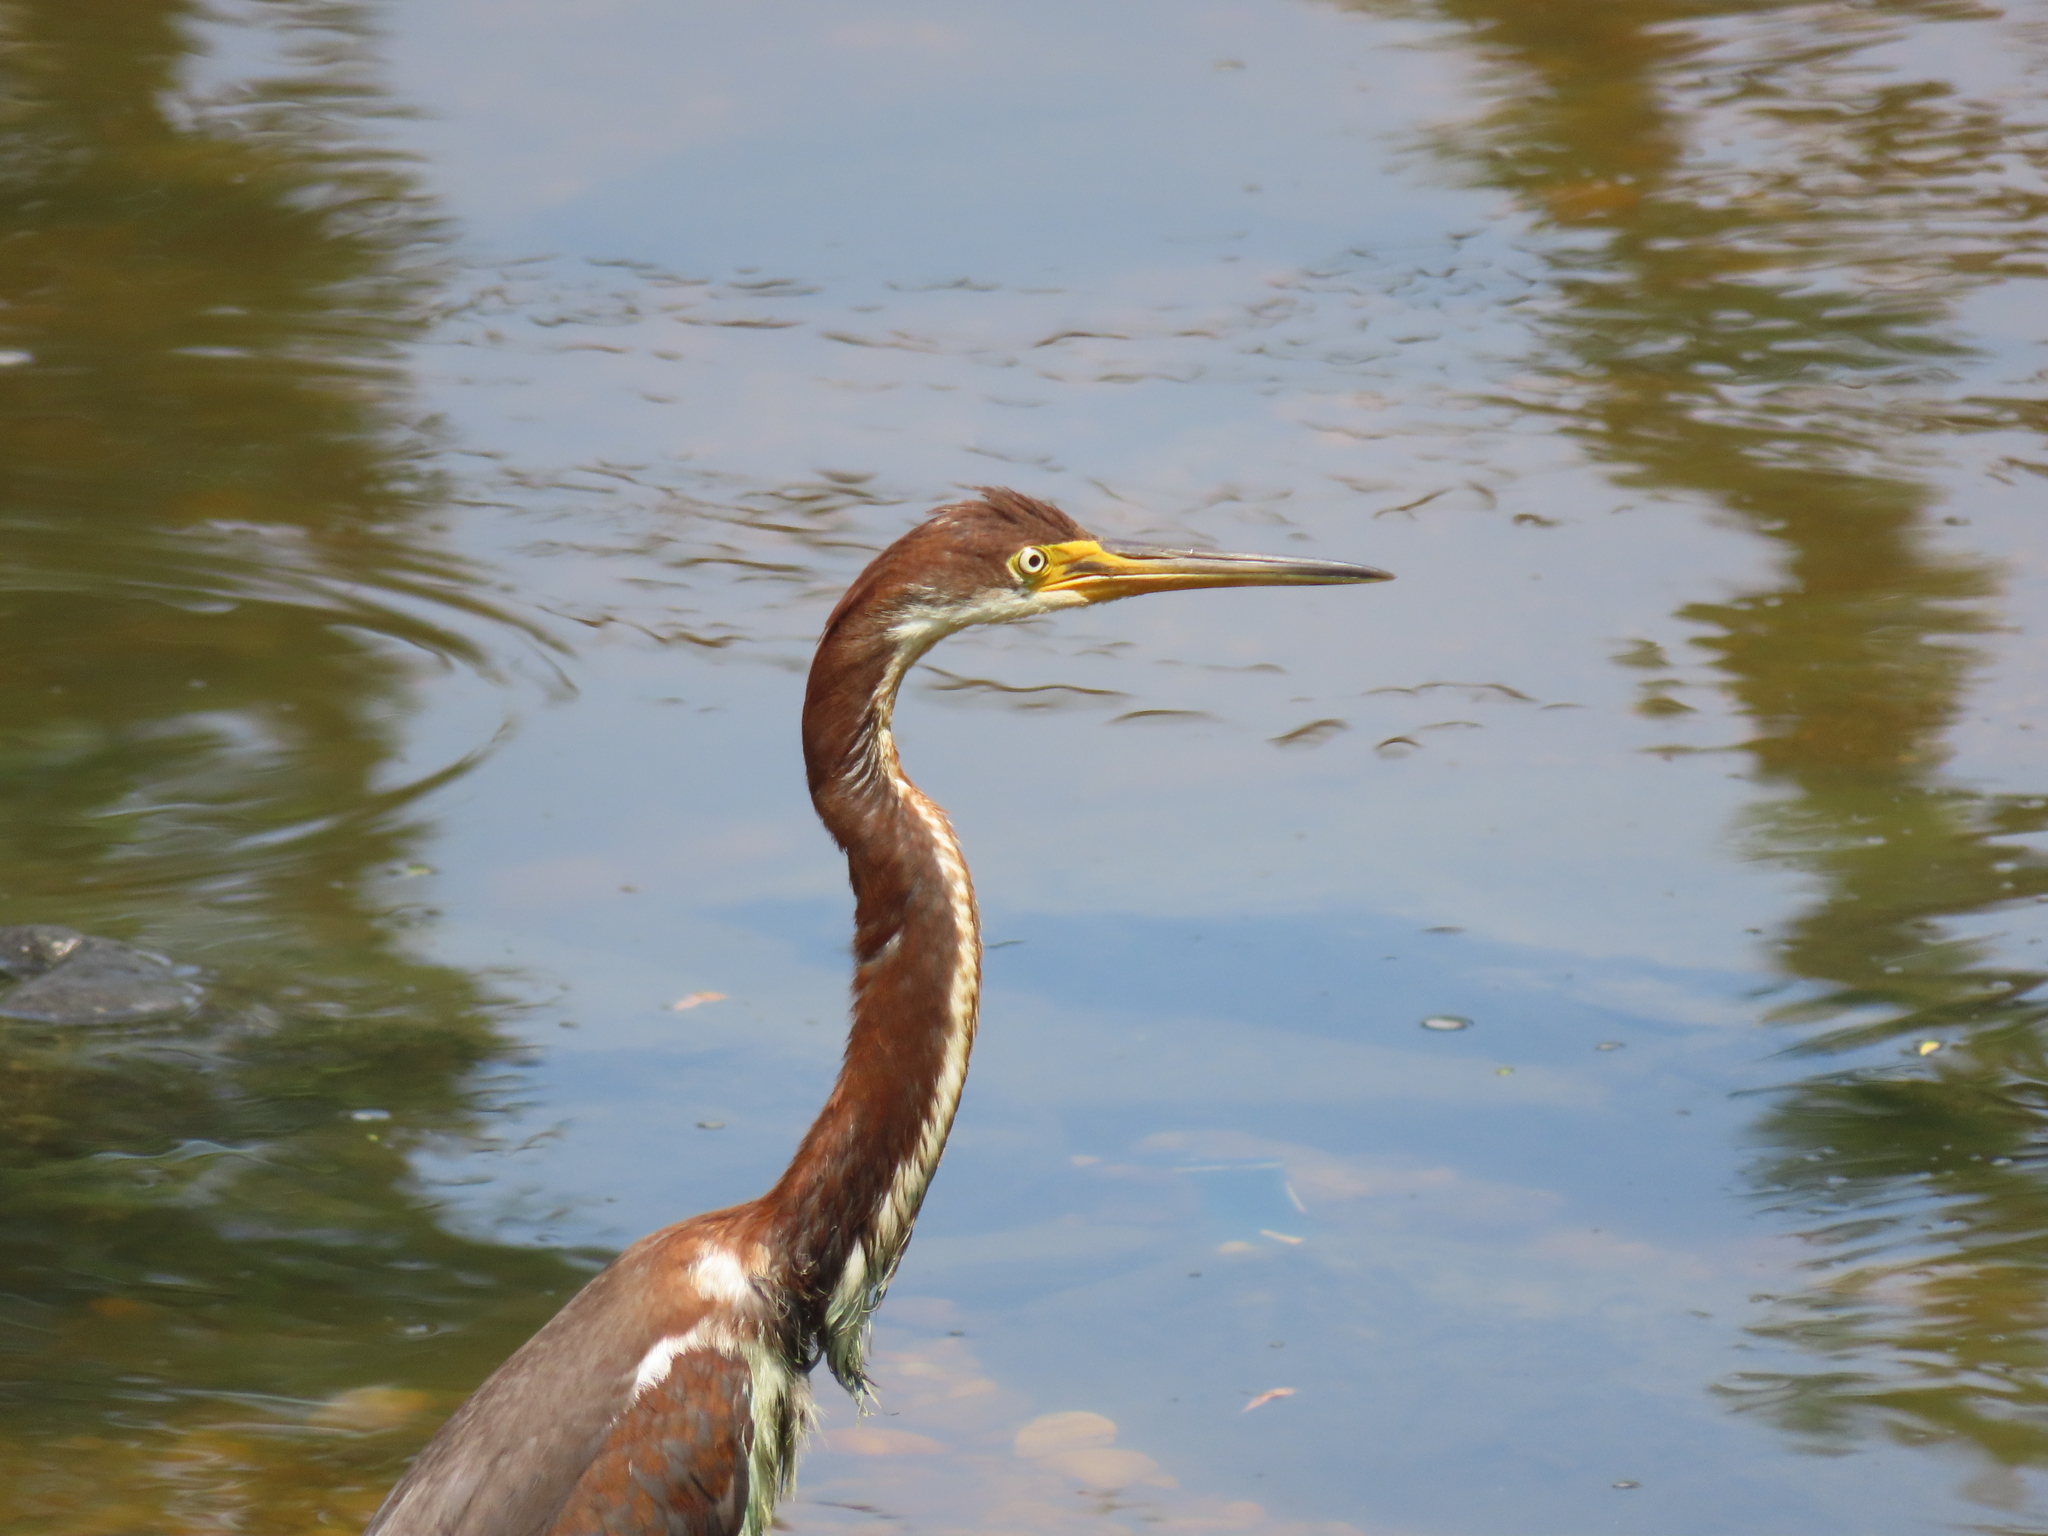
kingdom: Animalia
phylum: Chordata
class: Aves
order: Pelecaniformes
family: Ardeidae
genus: Egretta
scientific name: Egretta tricolor
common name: Tricolored heron
